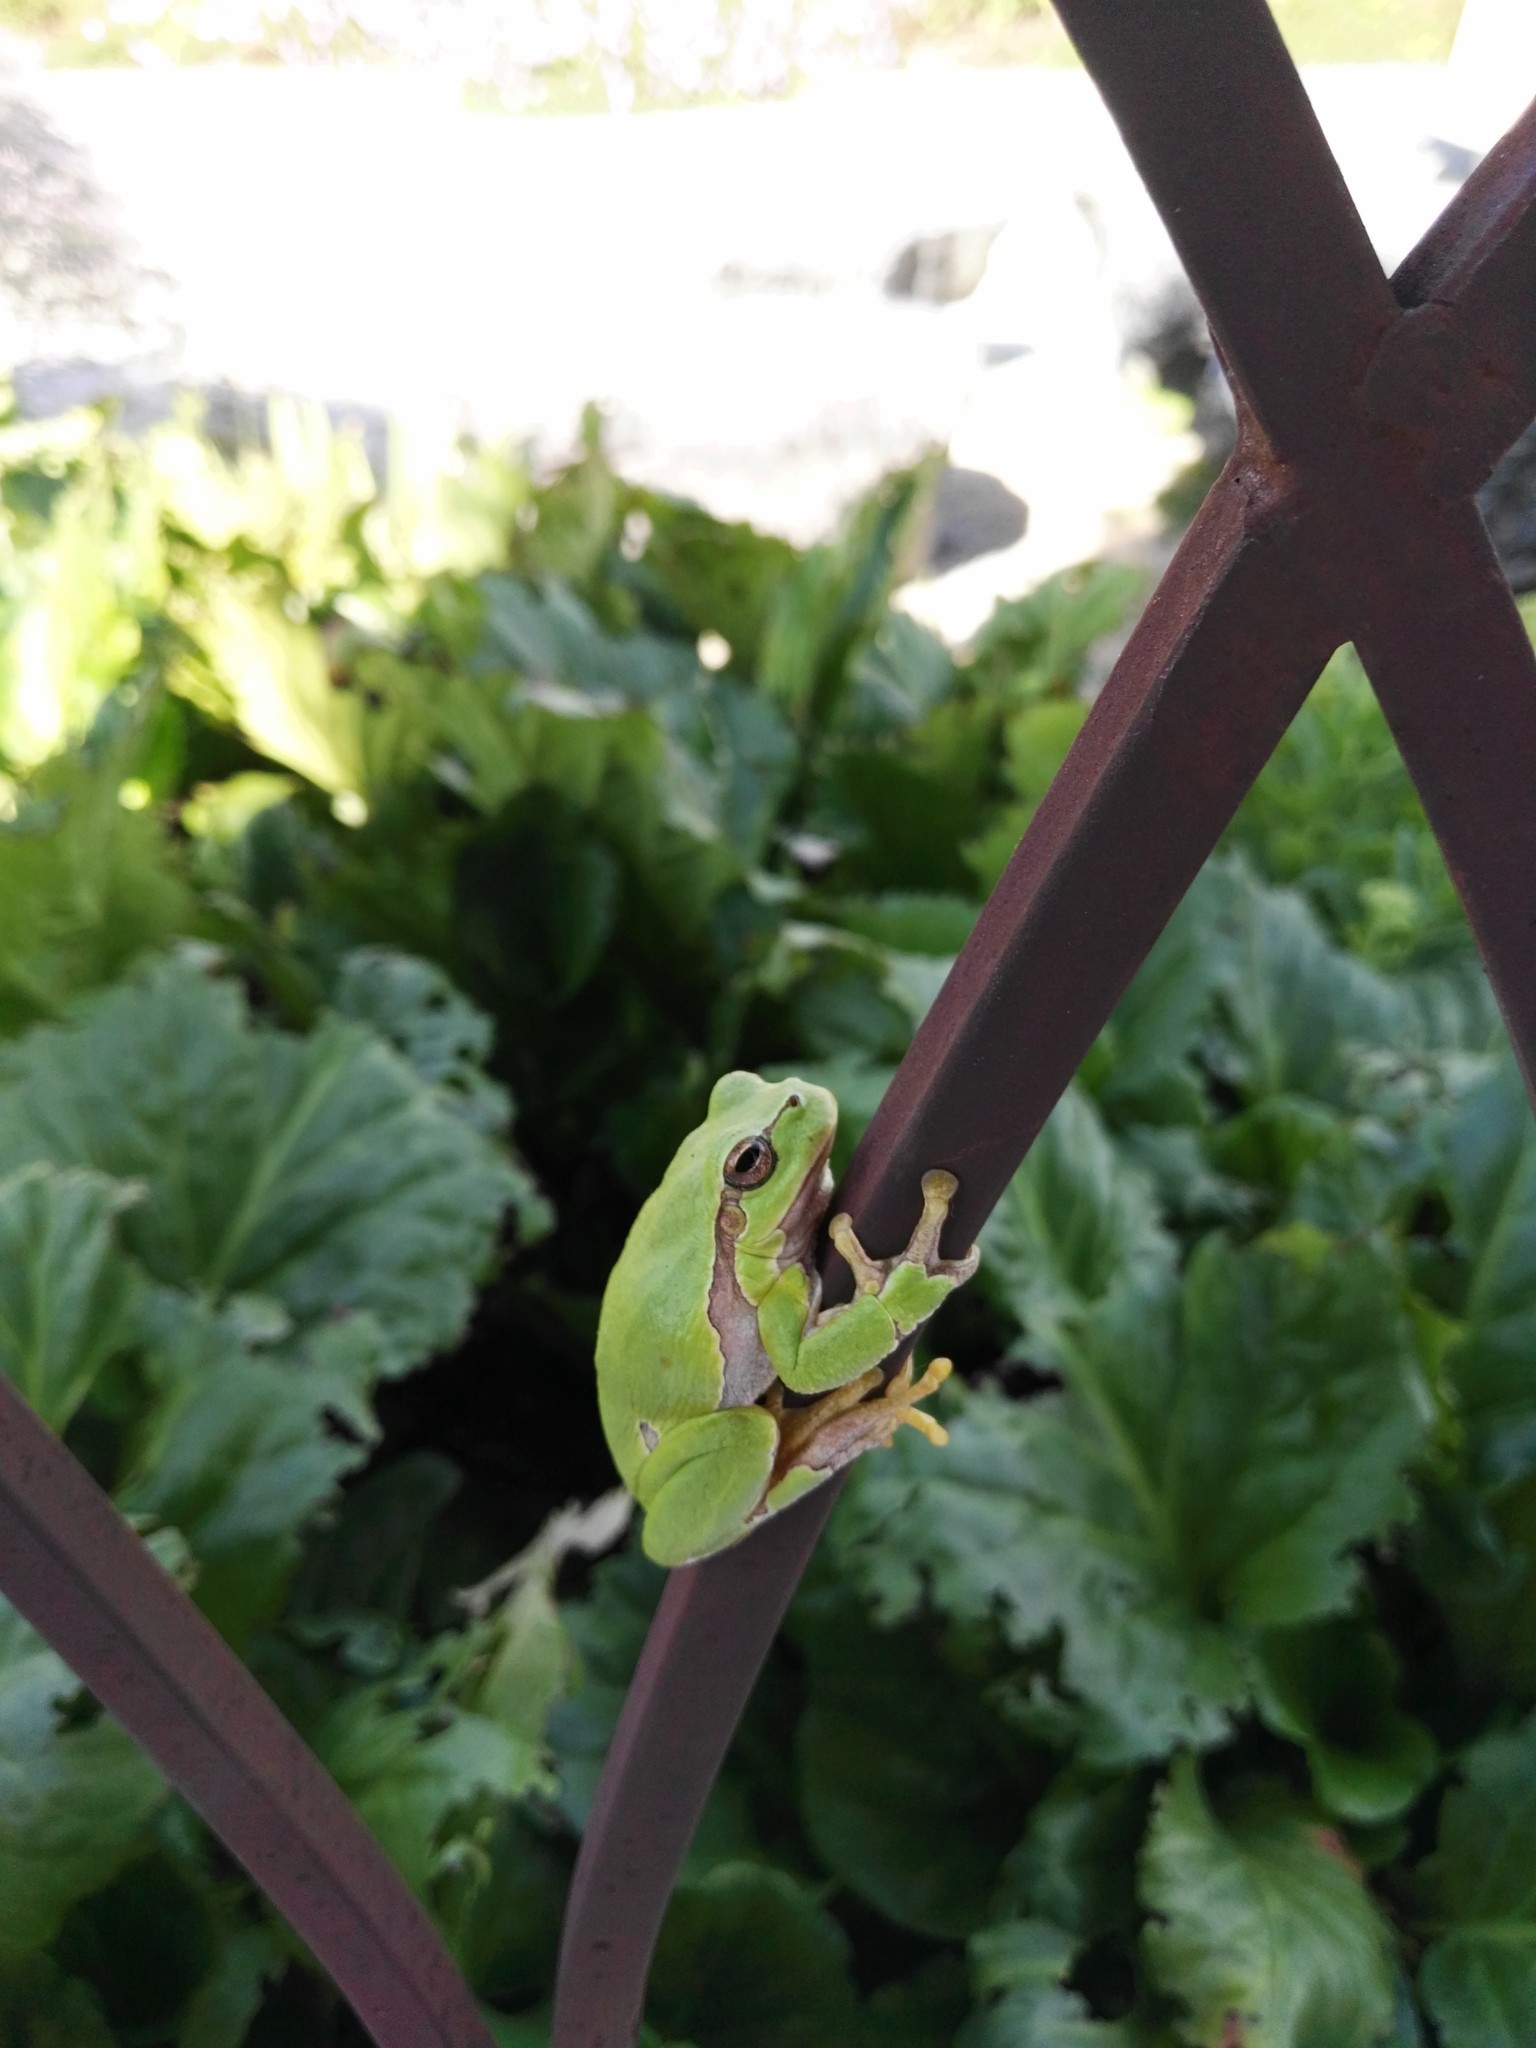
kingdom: Animalia
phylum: Chordata
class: Amphibia
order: Anura
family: Hylidae
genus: Hyla
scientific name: Hyla arborea
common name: Common tree frog
